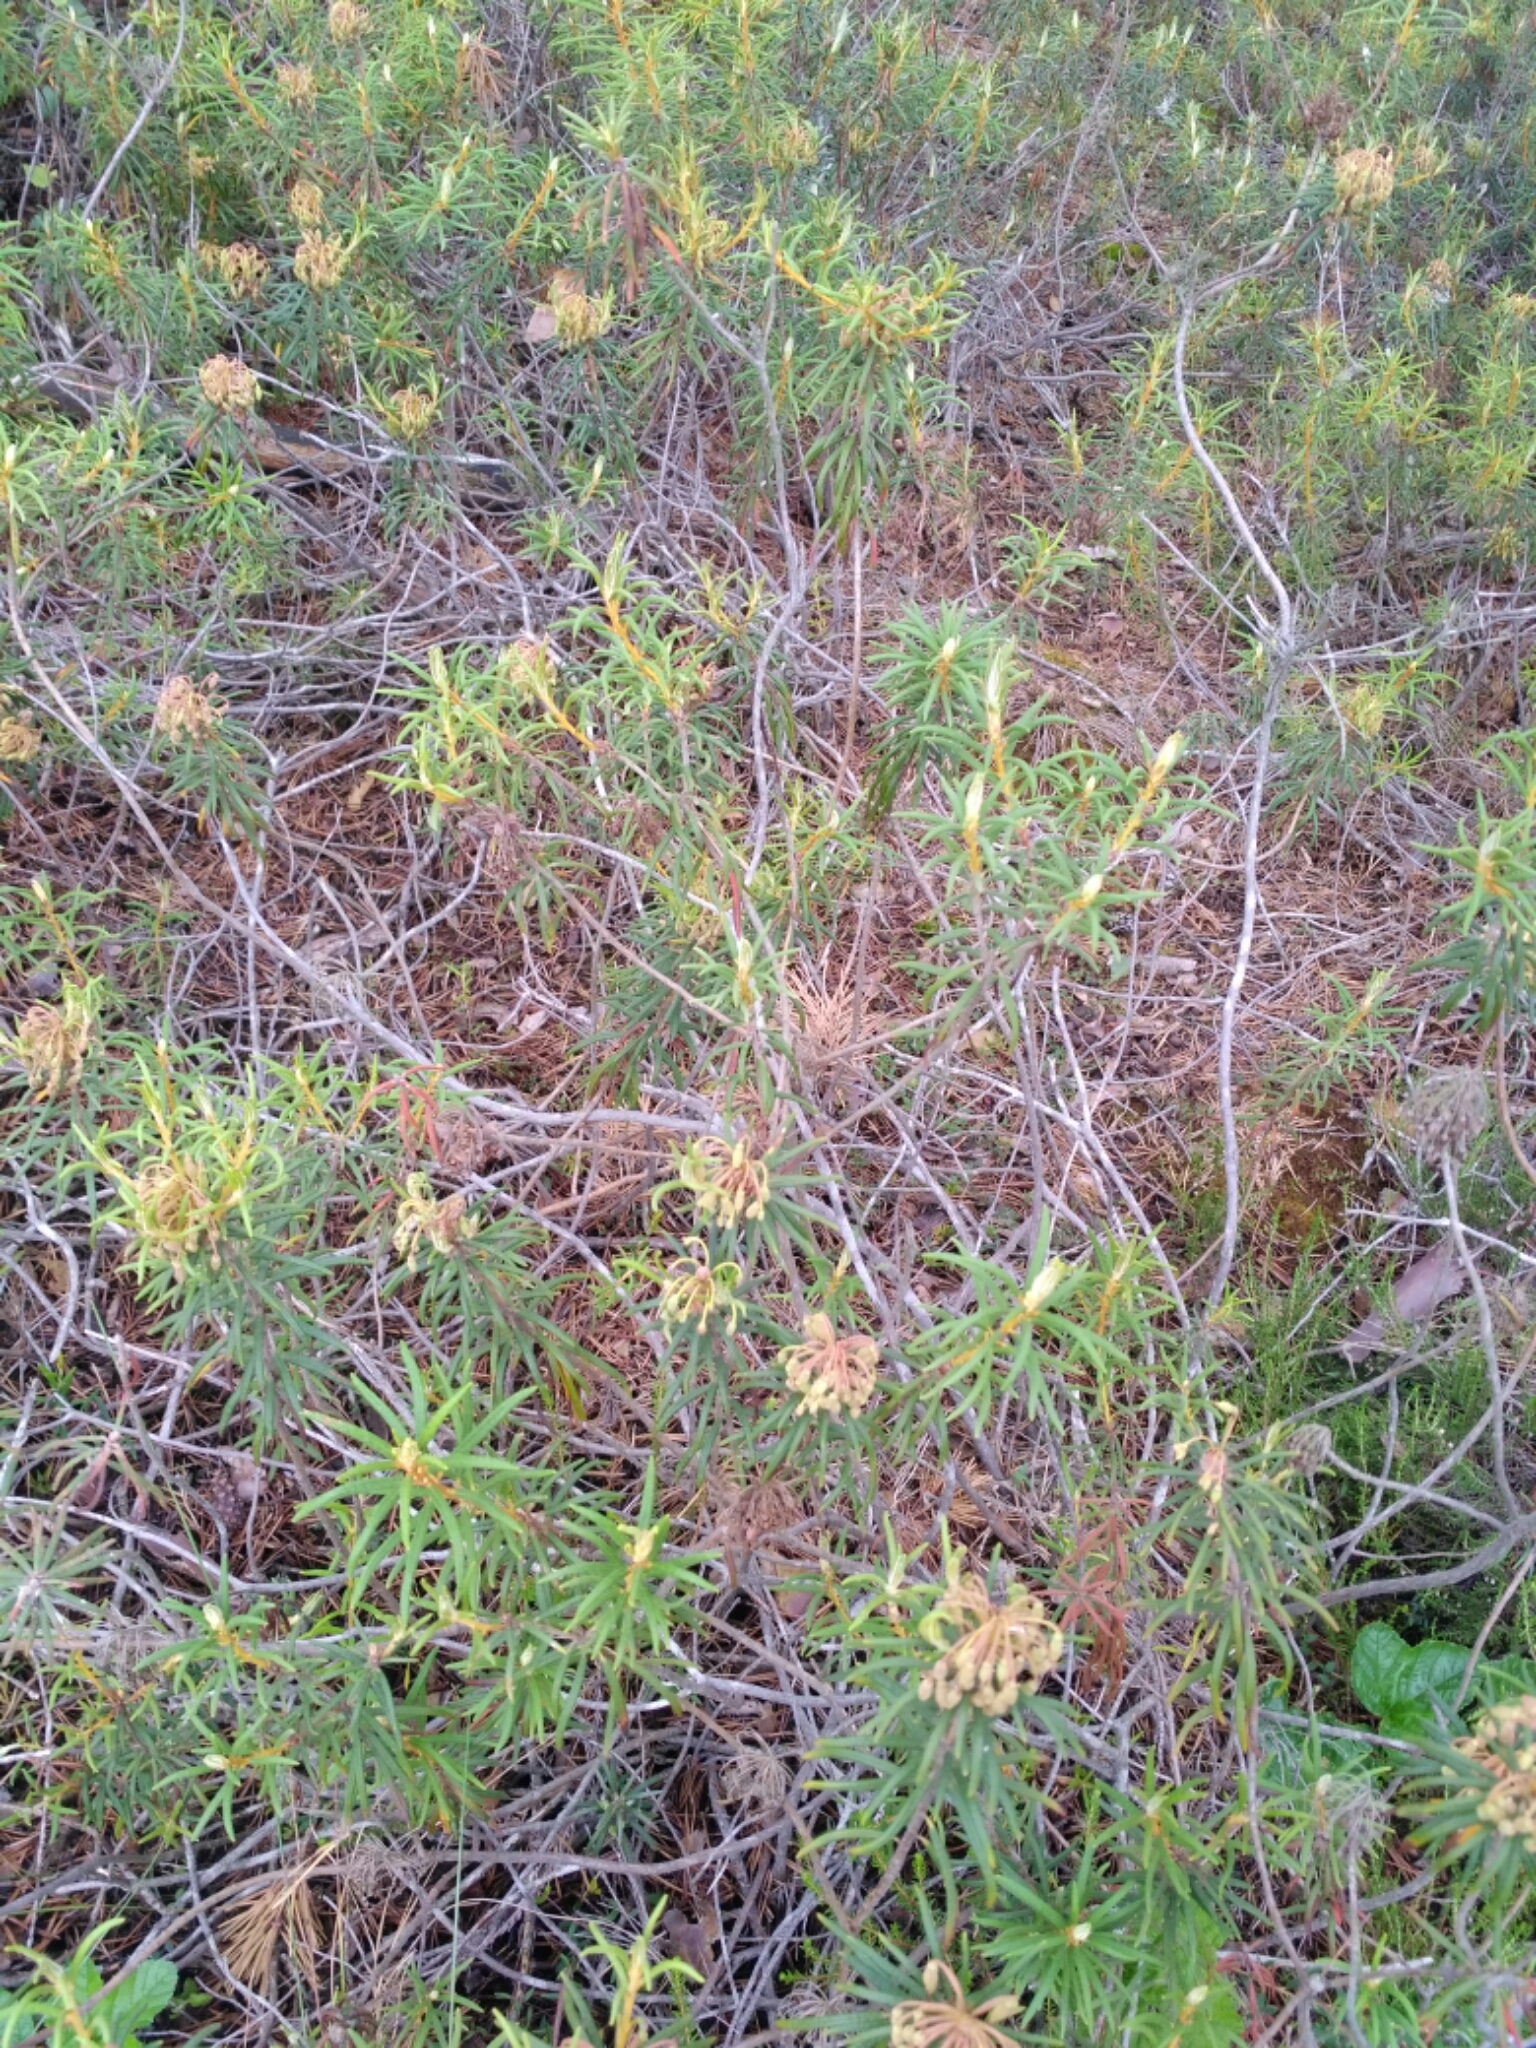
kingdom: Plantae
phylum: Tracheophyta
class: Magnoliopsida
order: Ericales
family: Ericaceae
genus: Rhododendron
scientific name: Rhododendron tomentosum
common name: Marsh labrador tea
